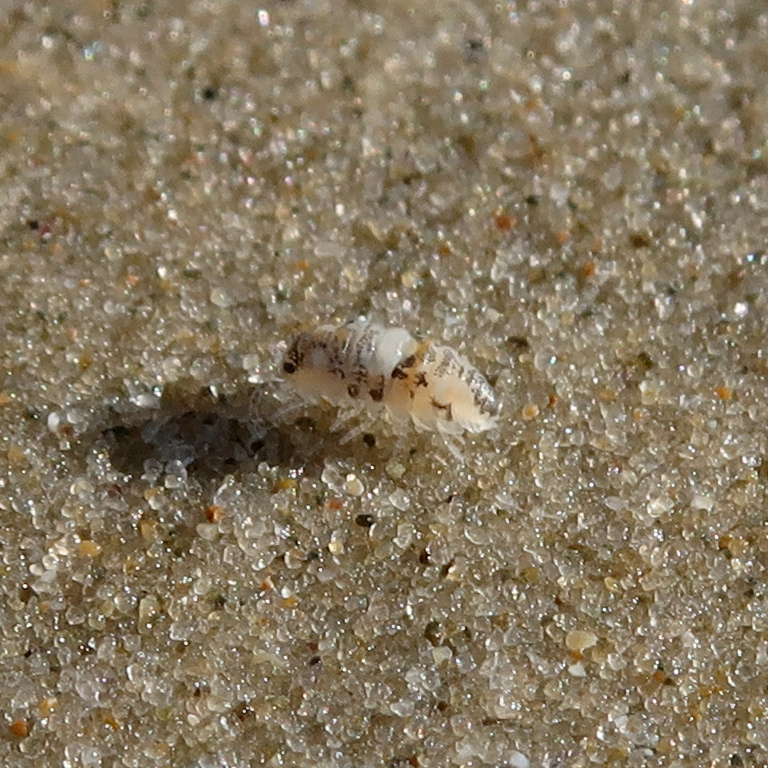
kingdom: Animalia
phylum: Arthropoda
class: Malacostraca
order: Isopoda
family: Scyphacidae
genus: Actaecia
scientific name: Actaecia thomsoni
